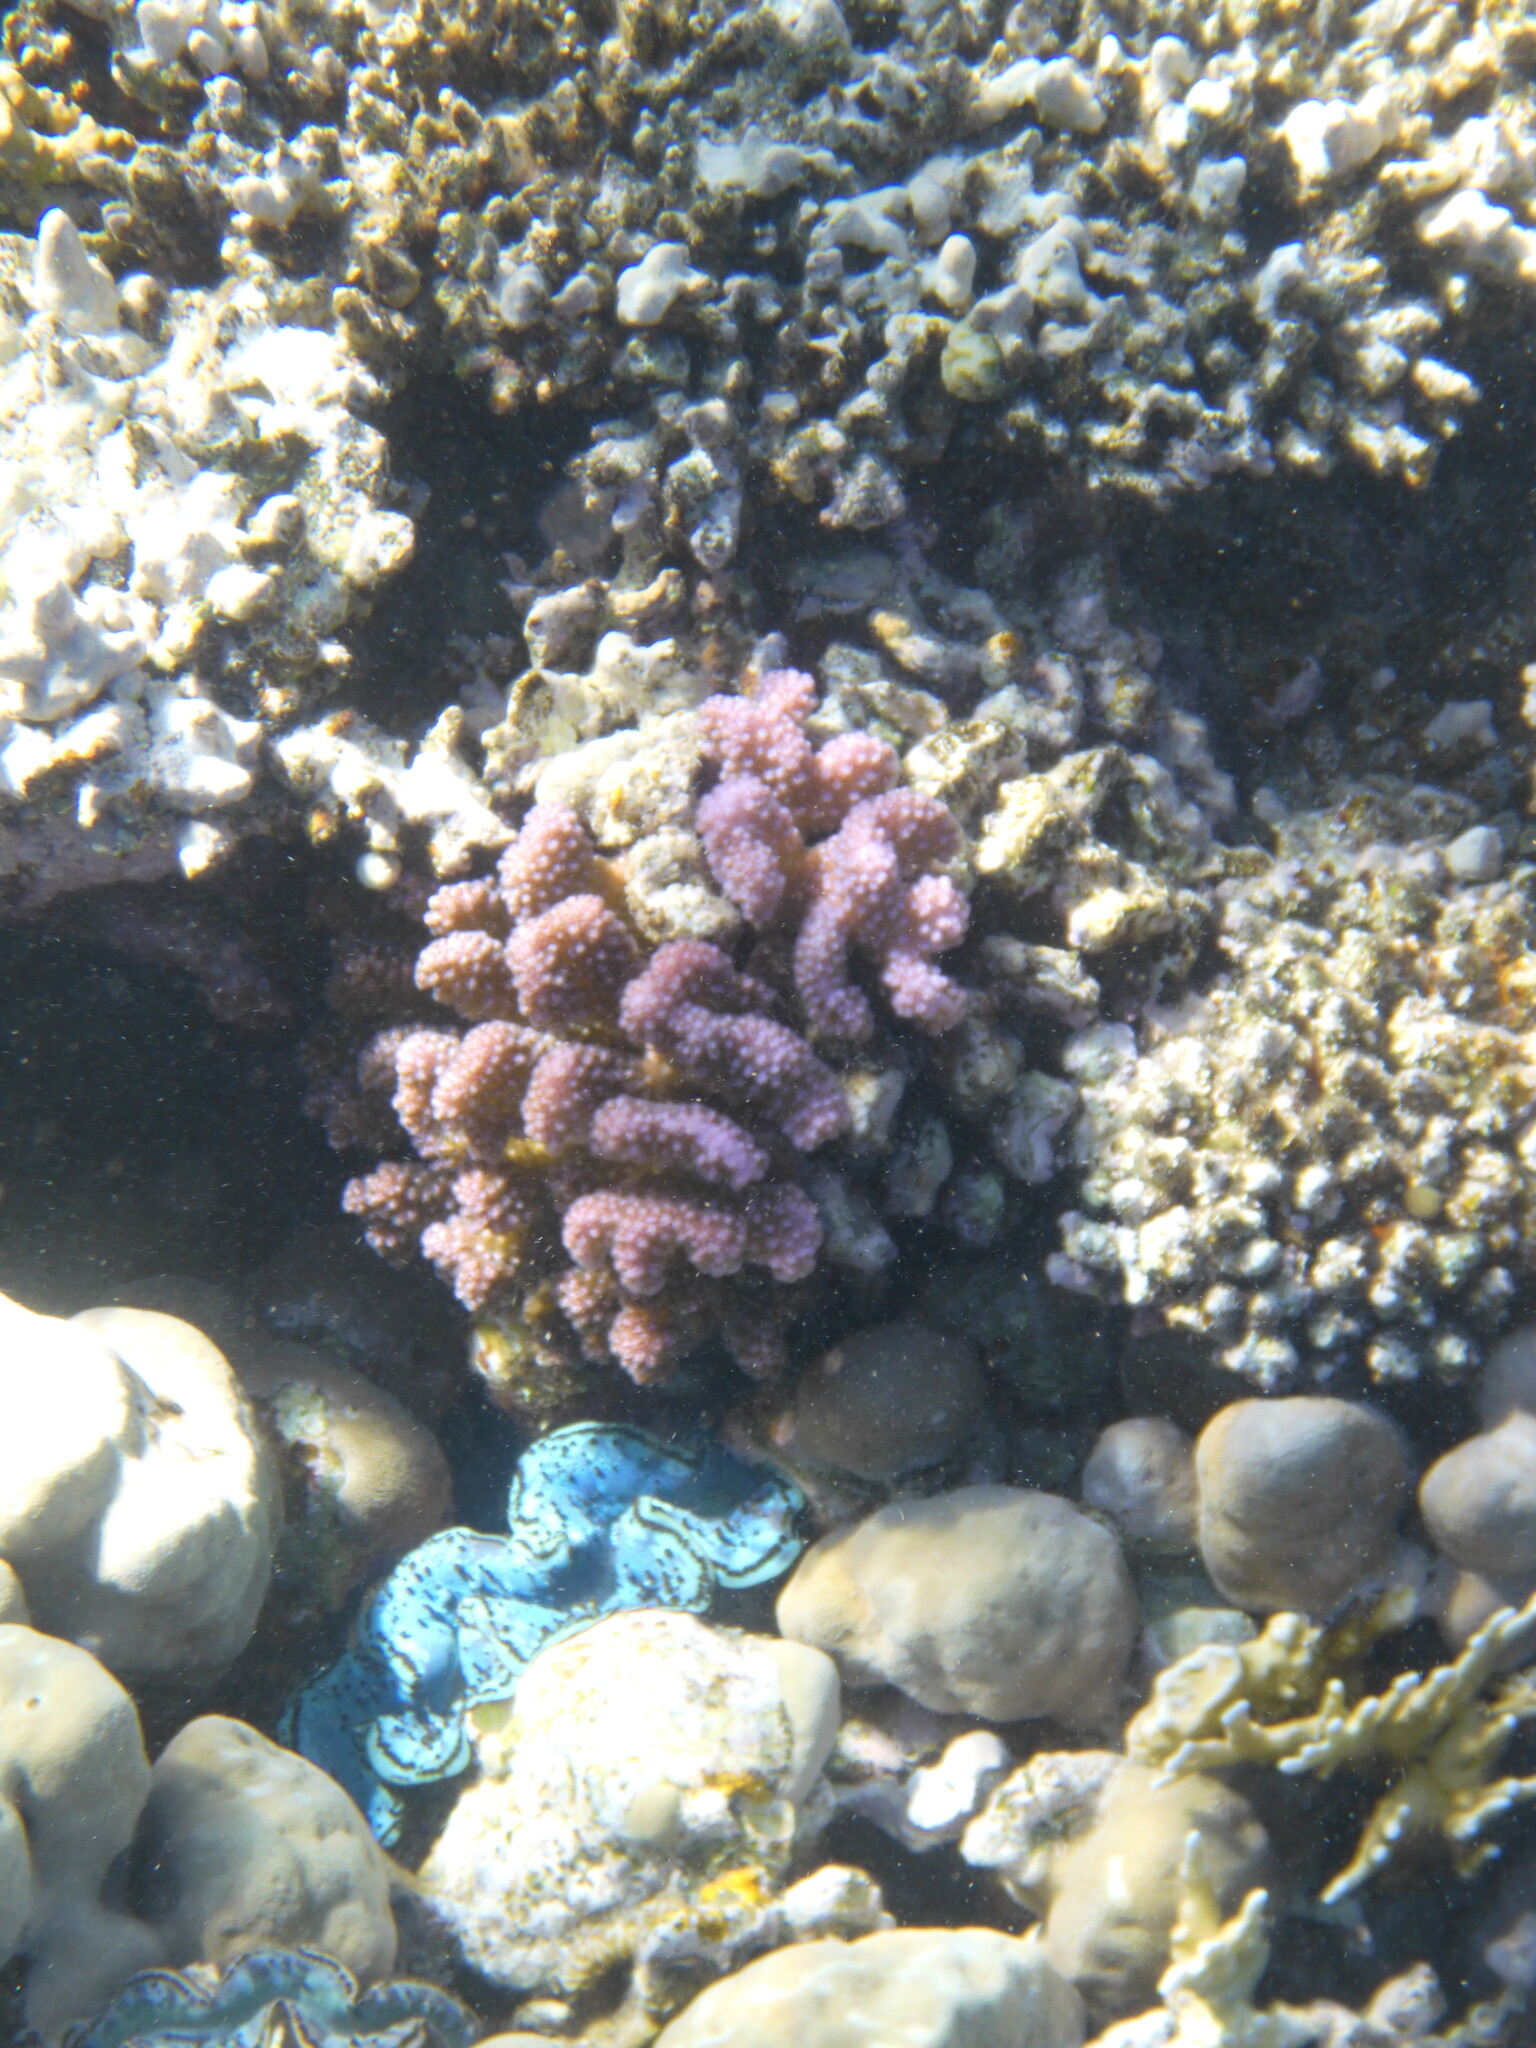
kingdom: Animalia
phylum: Cnidaria
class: Anthozoa
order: Scleractinia
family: Pocilloporidae
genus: Pocillopora
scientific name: Pocillopora verrucosa
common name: Cauliflower coral
